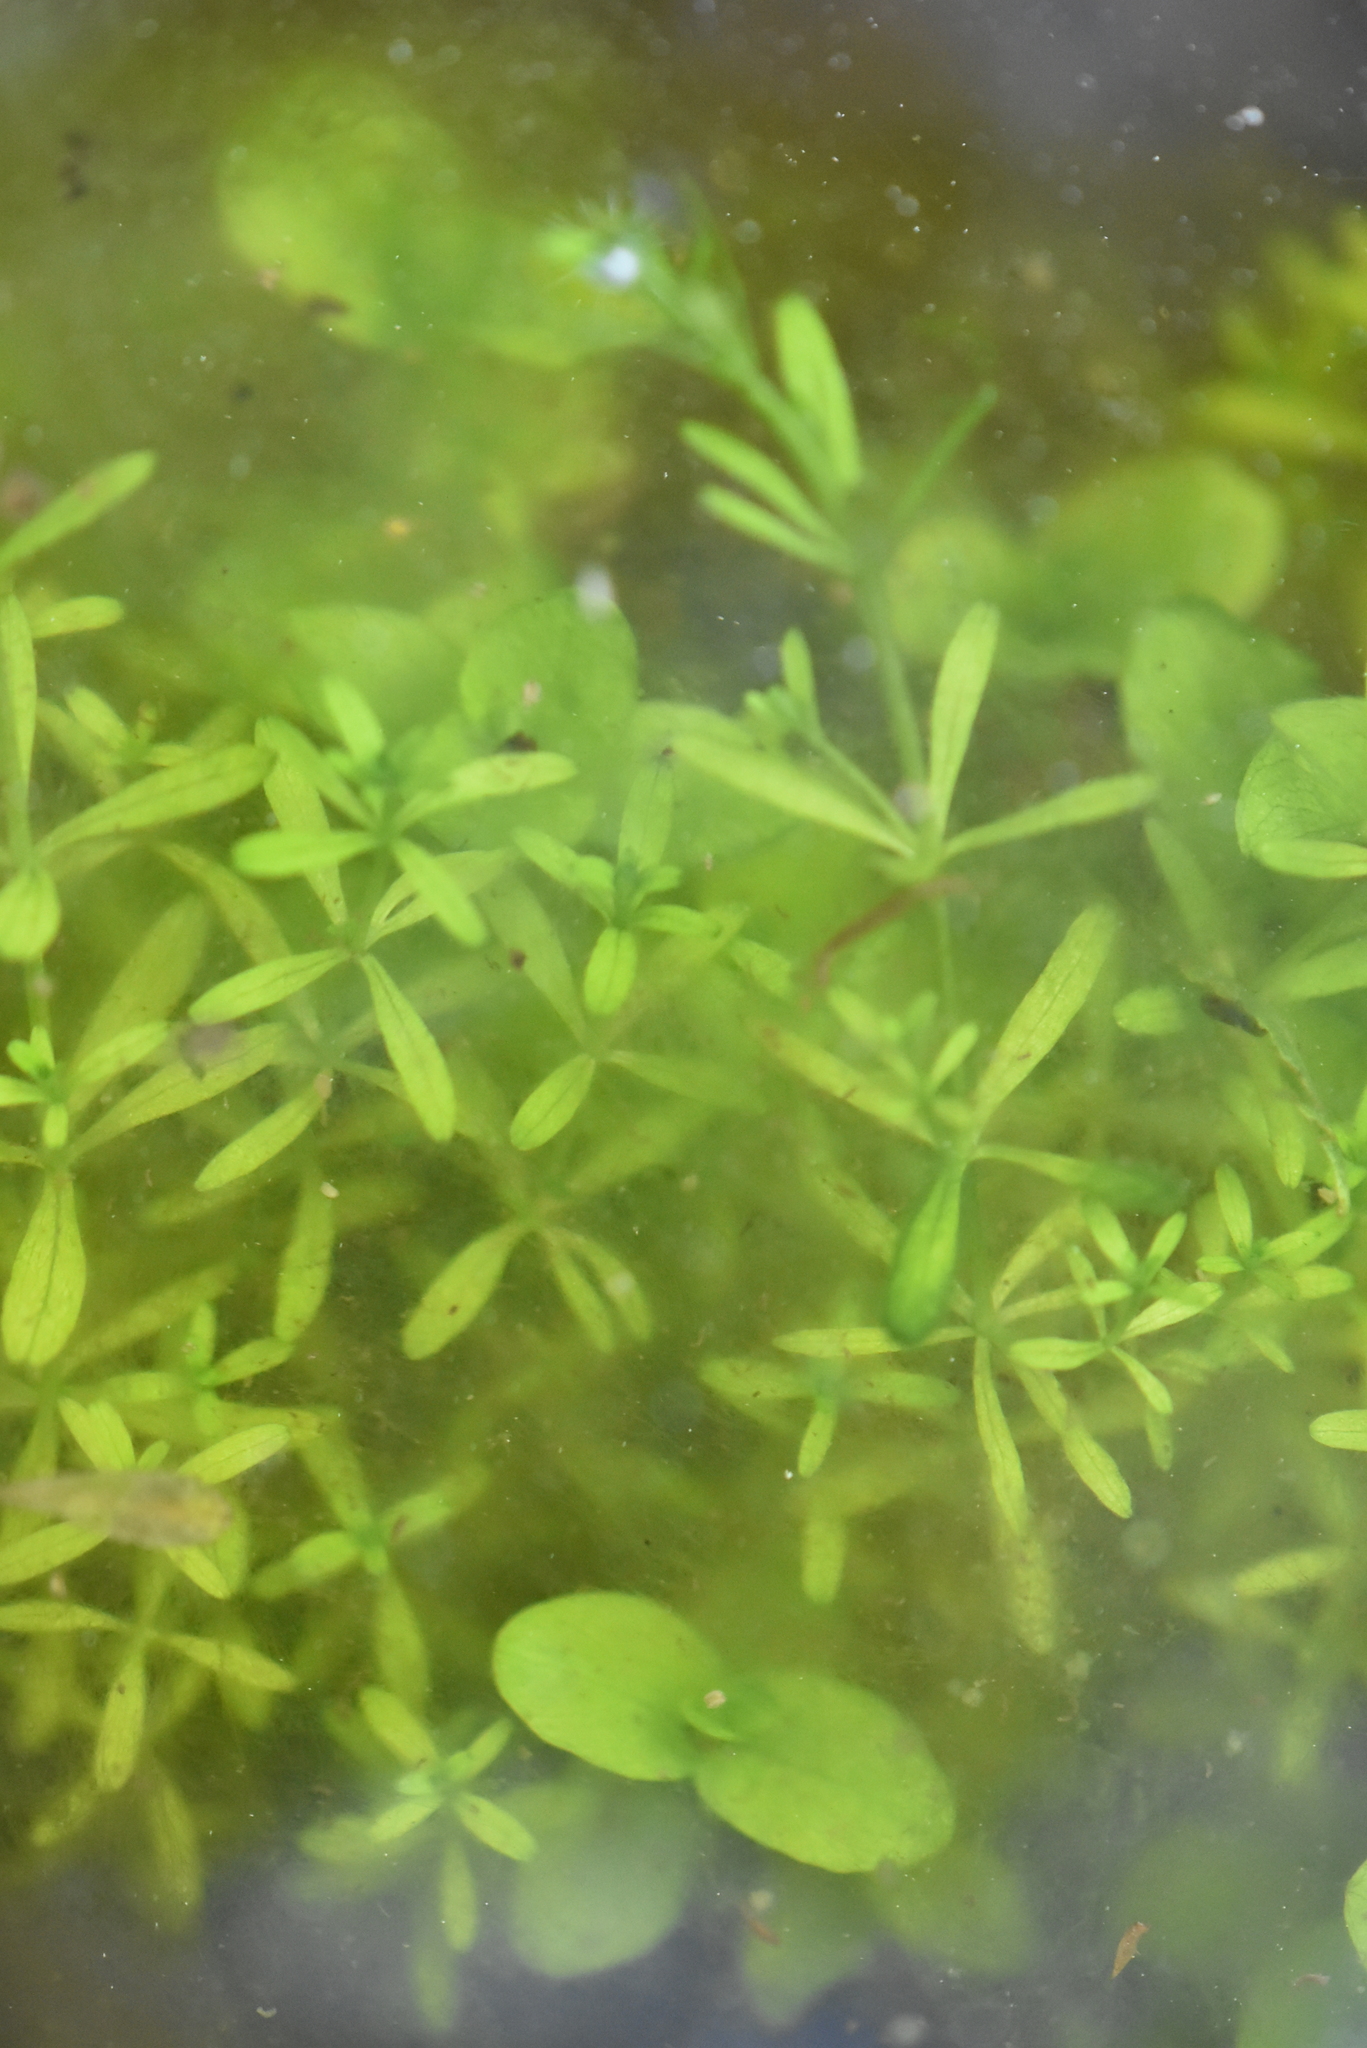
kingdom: Plantae
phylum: Tracheophyta
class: Magnoliopsida
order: Gentianales
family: Rubiaceae
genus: Galium
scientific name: Galium palustre
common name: Common marsh-bedstraw
